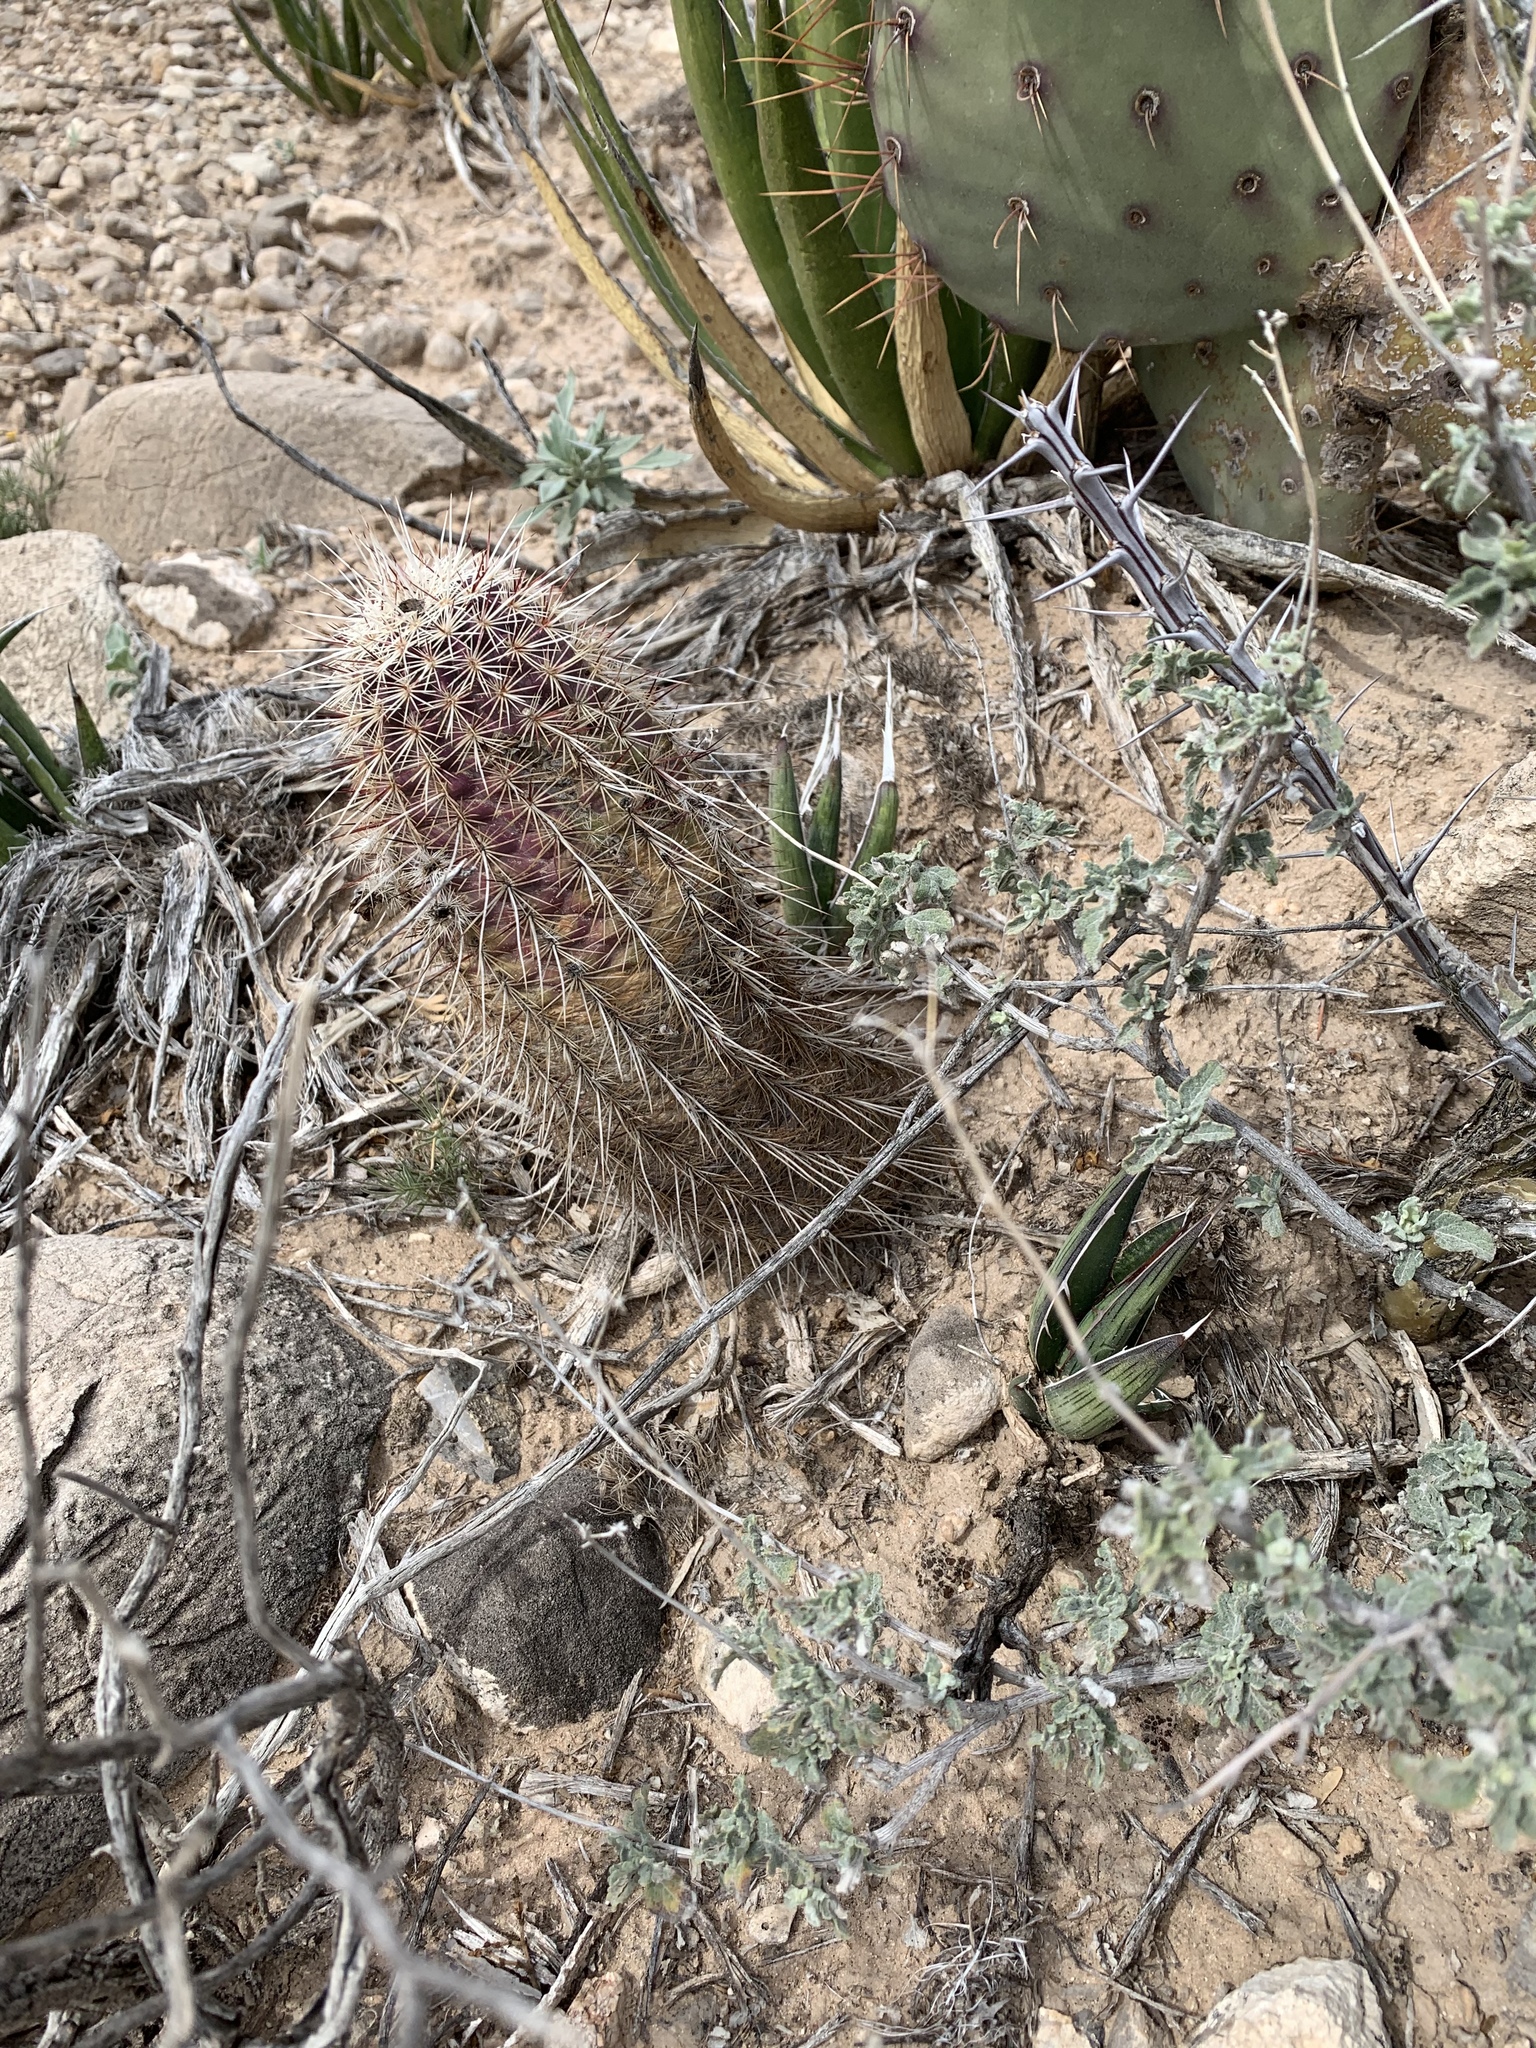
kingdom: Plantae
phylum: Tracheophyta
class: Magnoliopsida
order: Caryophyllales
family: Cactaceae
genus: Echinocereus
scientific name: Echinocereus viridiflorus
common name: Nylon hedgehog cactus
